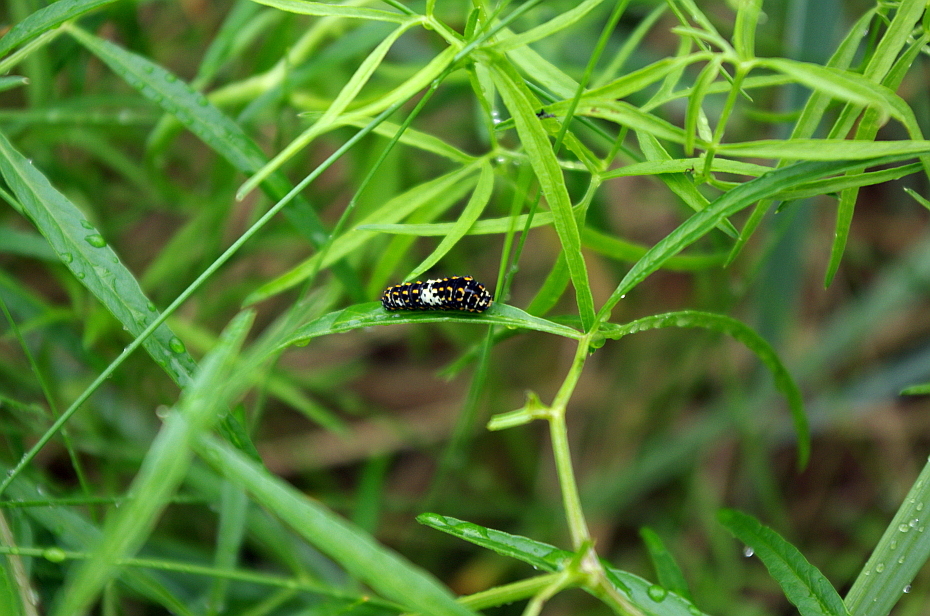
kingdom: Plantae
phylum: Tracheophyta
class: Magnoliopsida
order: Apiales
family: Apiaceae
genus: Cenolophium
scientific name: Cenolophium fischeri
